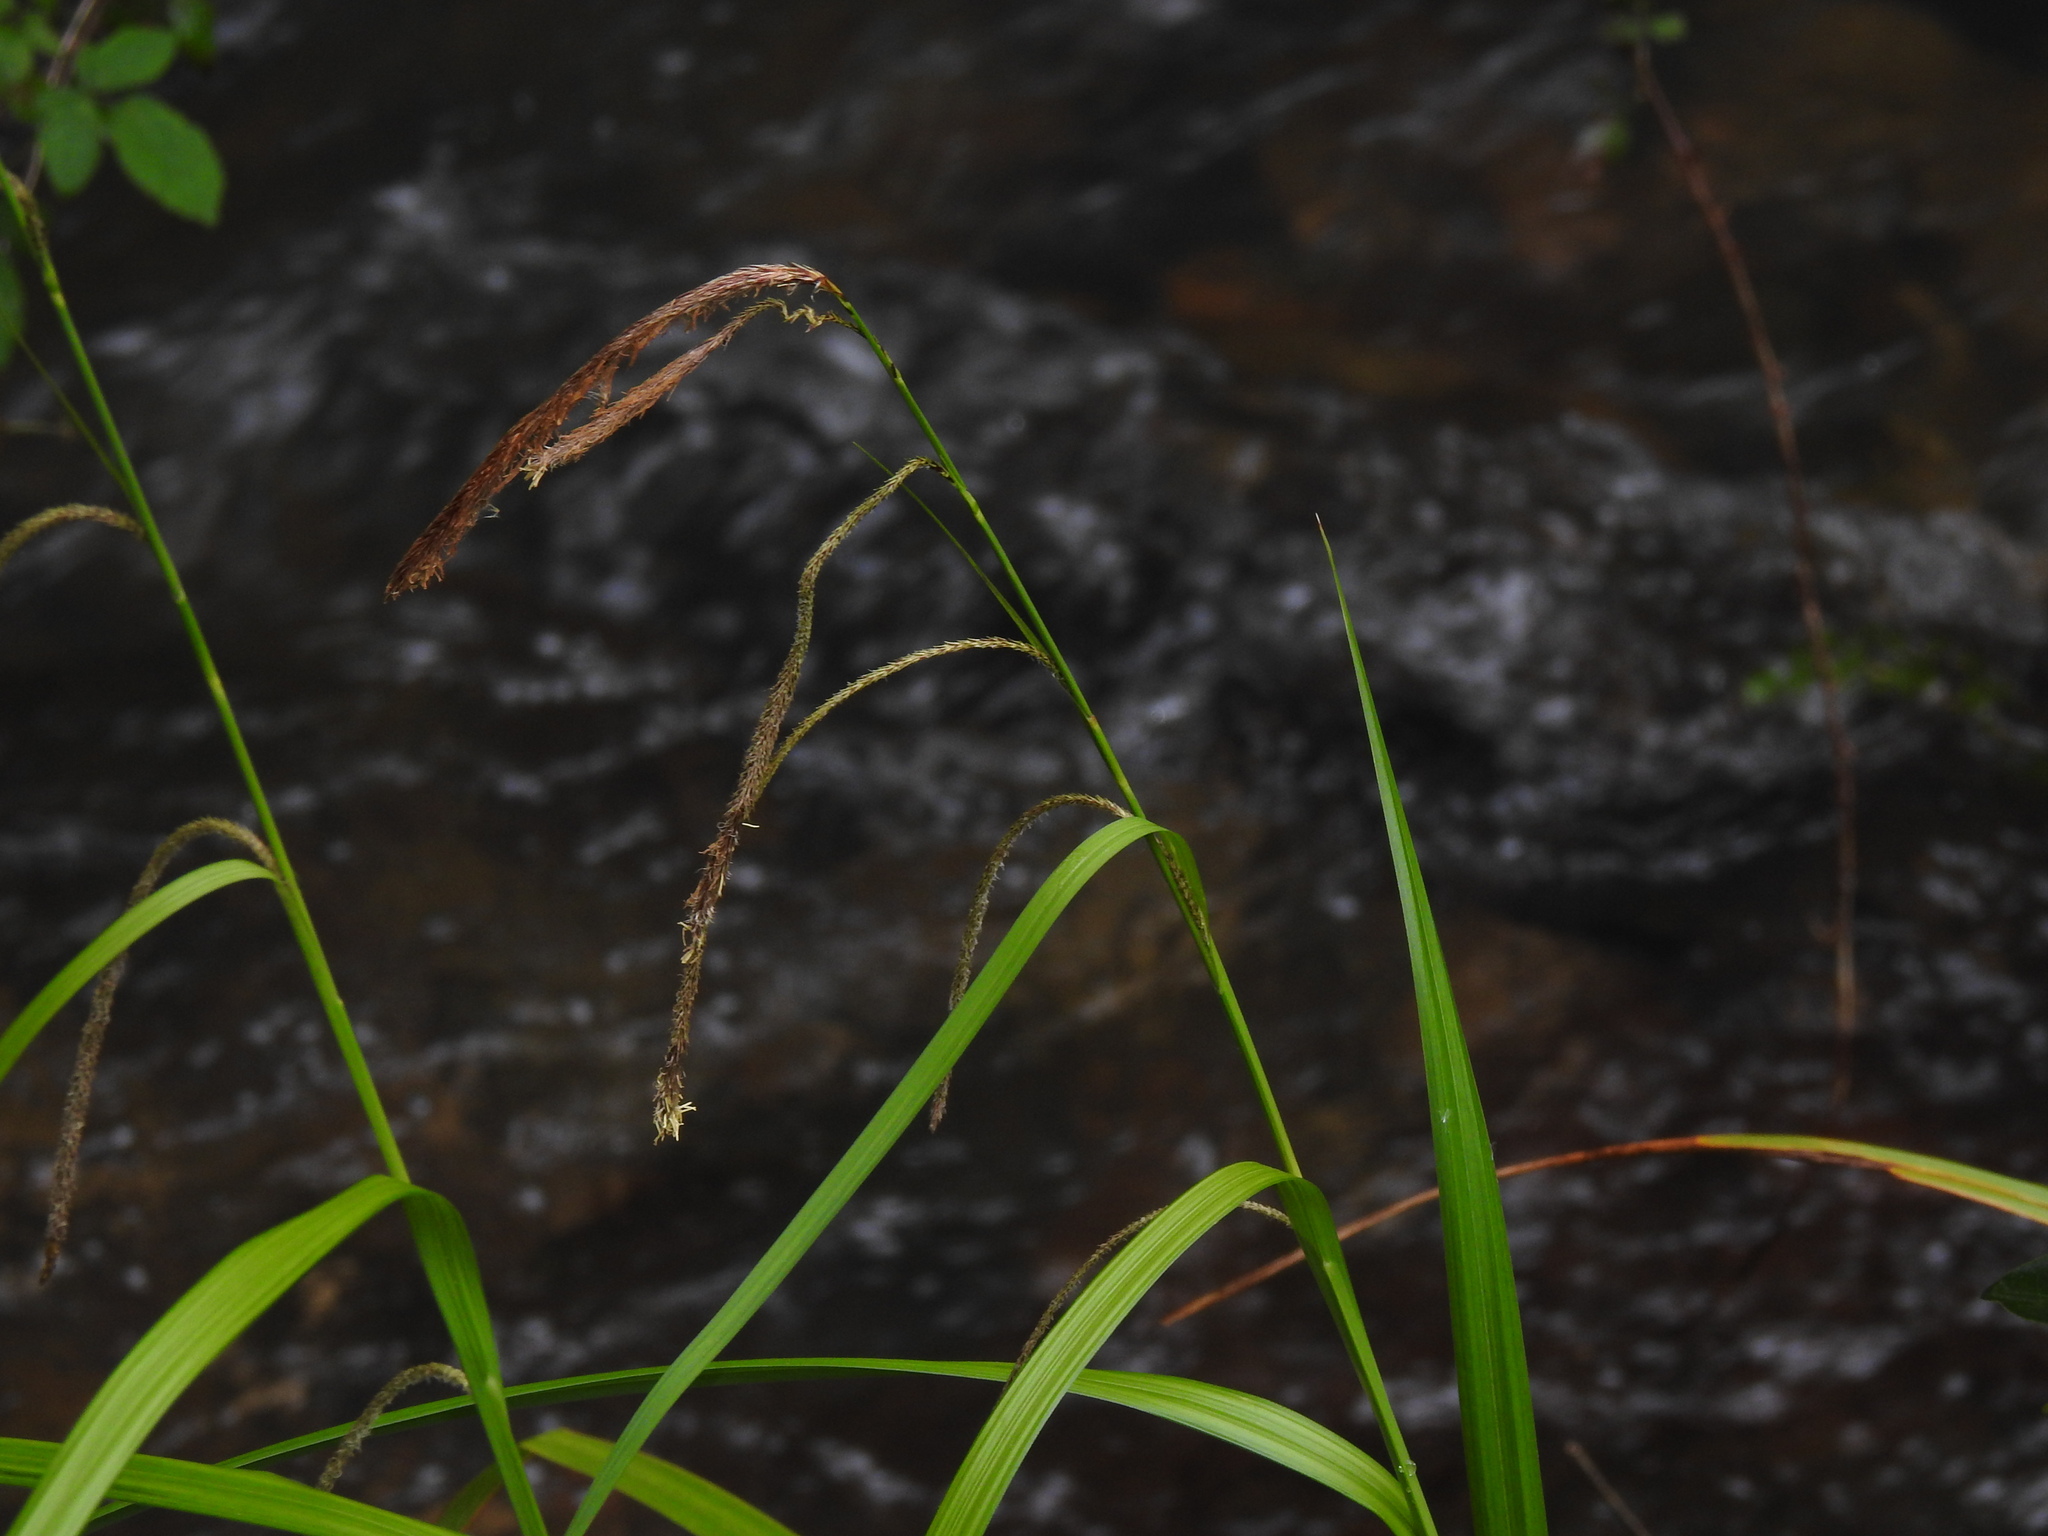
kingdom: Plantae
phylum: Tracheophyta
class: Liliopsida
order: Poales
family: Cyperaceae
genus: Carex
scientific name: Carex pendula
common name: Pendulous sedge
